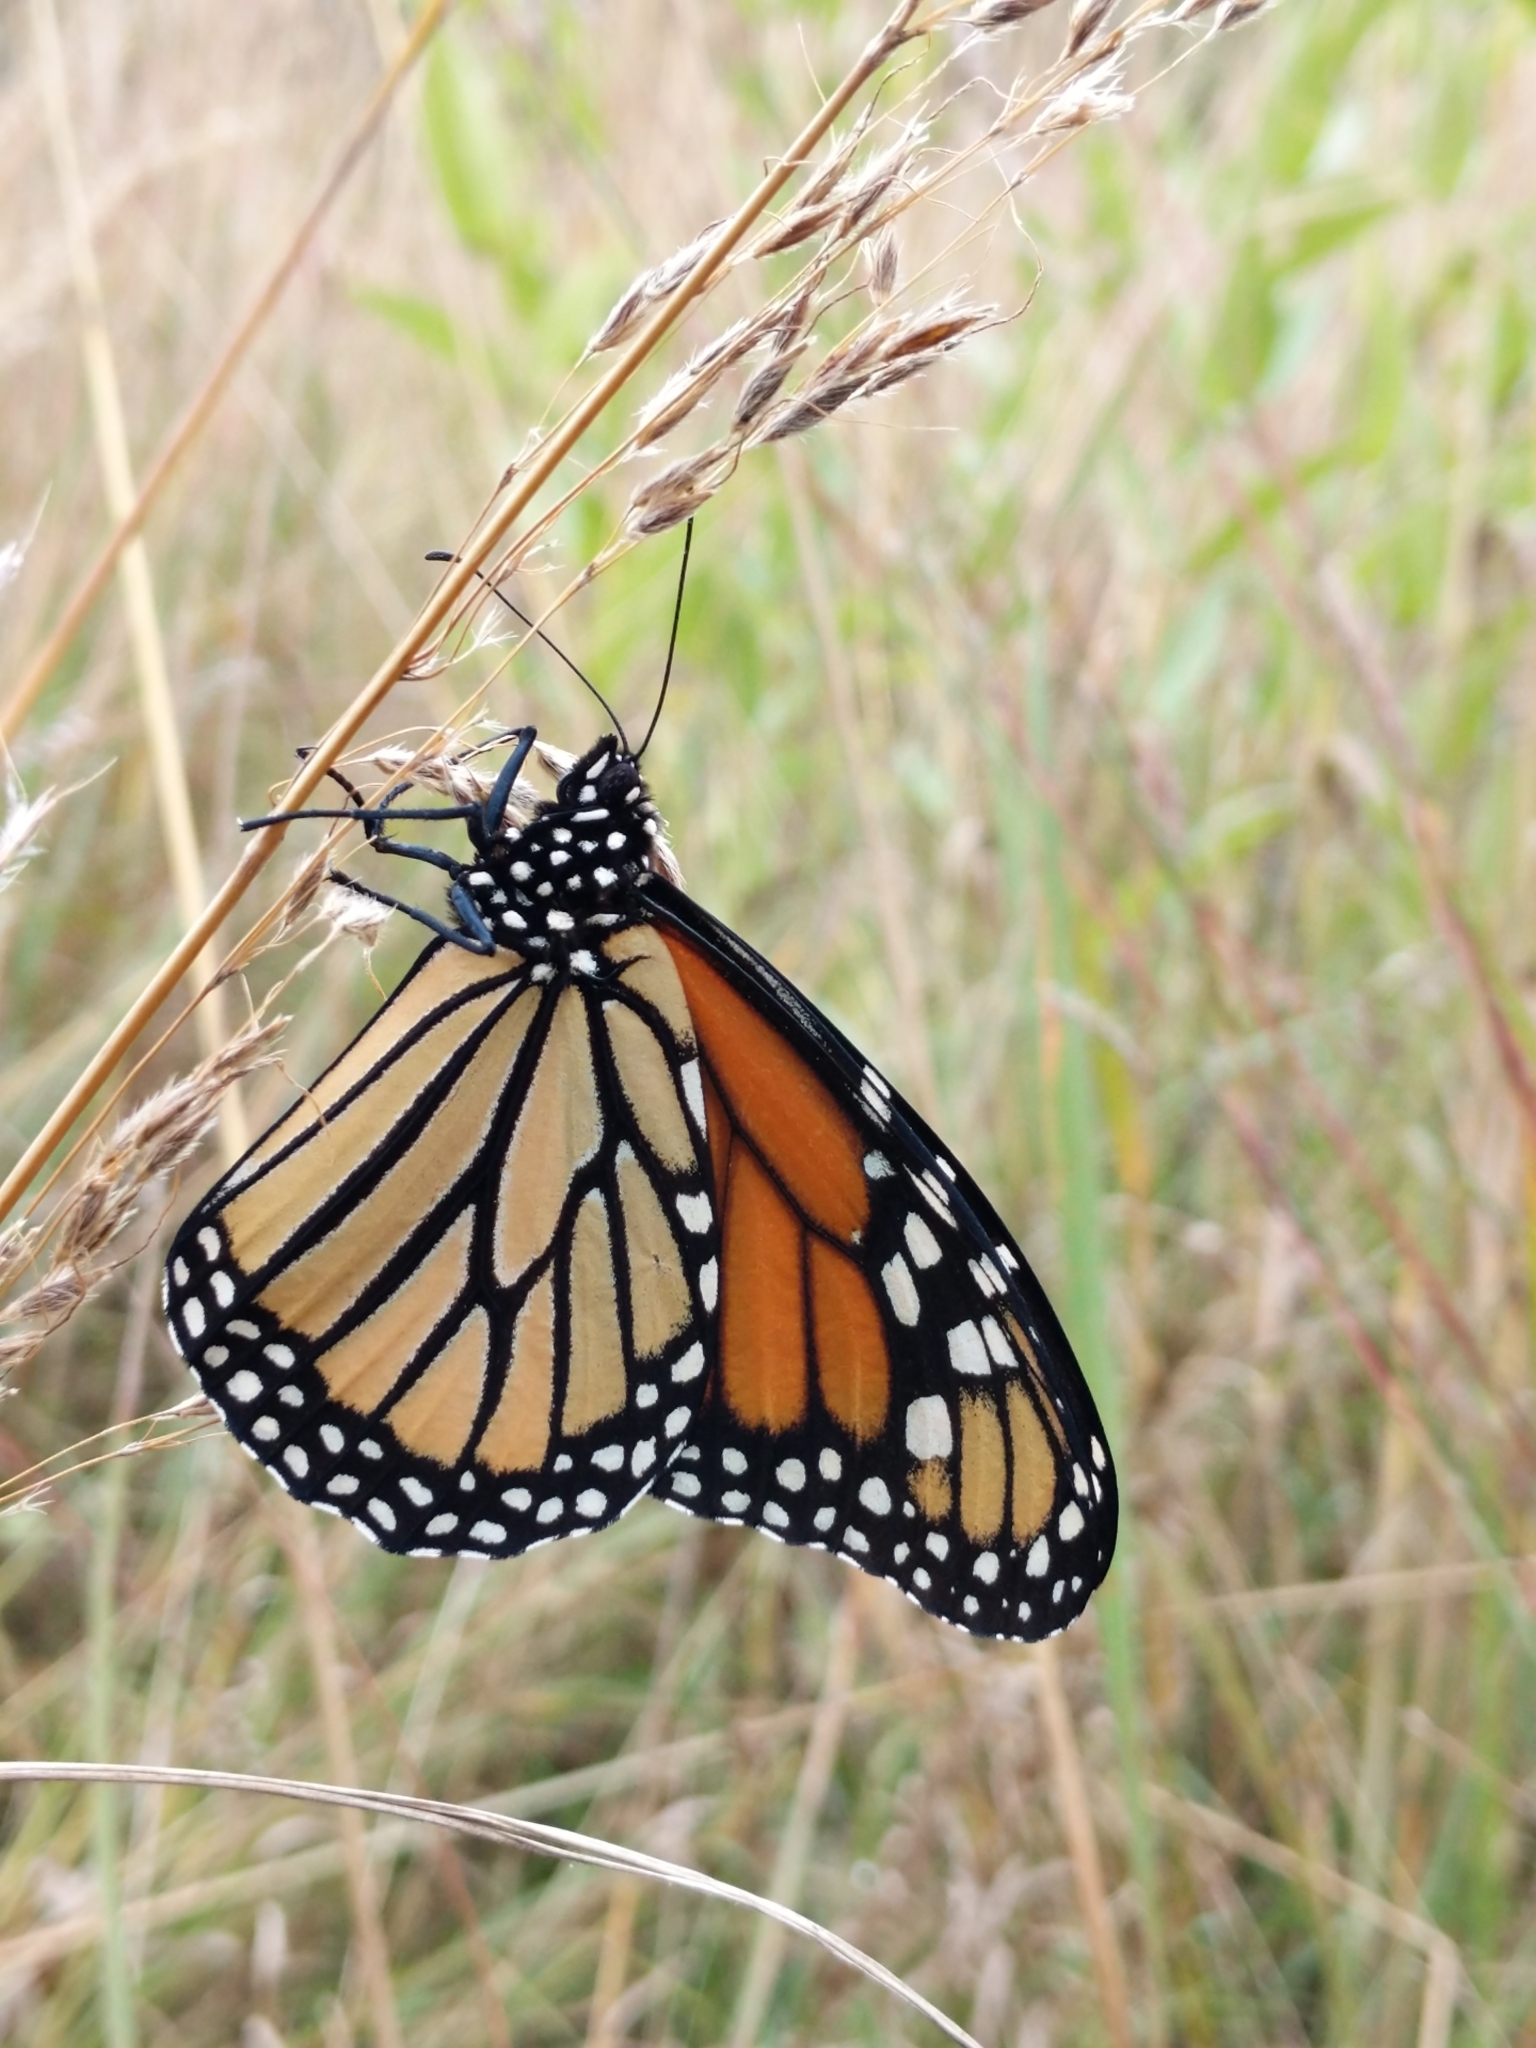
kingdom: Animalia
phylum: Arthropoda
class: Insecta
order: Lepidoptera
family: Nymphalidae
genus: Danaus
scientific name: Danaus plexippus
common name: Monarch
